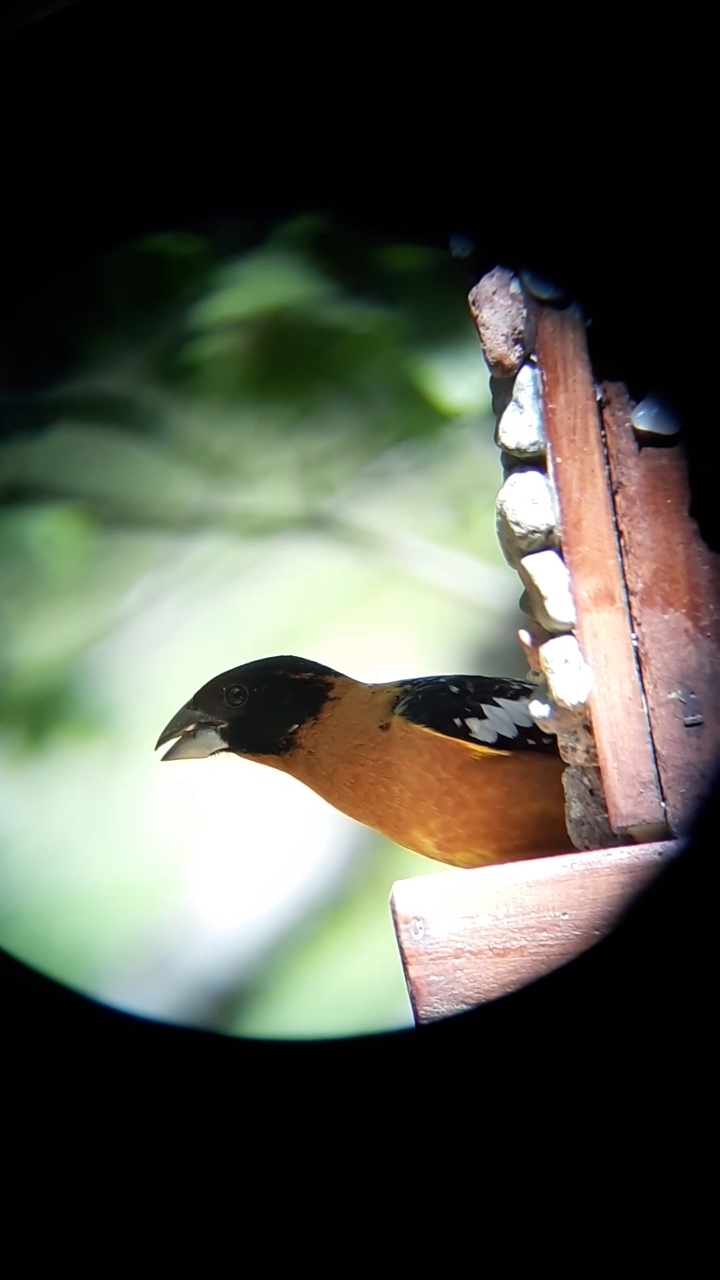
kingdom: Animalia
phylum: Chordata
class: Aves
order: Passeriformes
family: Cardinalidae
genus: Pheucticus
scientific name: Pheucticus melanocephalus
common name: Black-headed grosbeak
